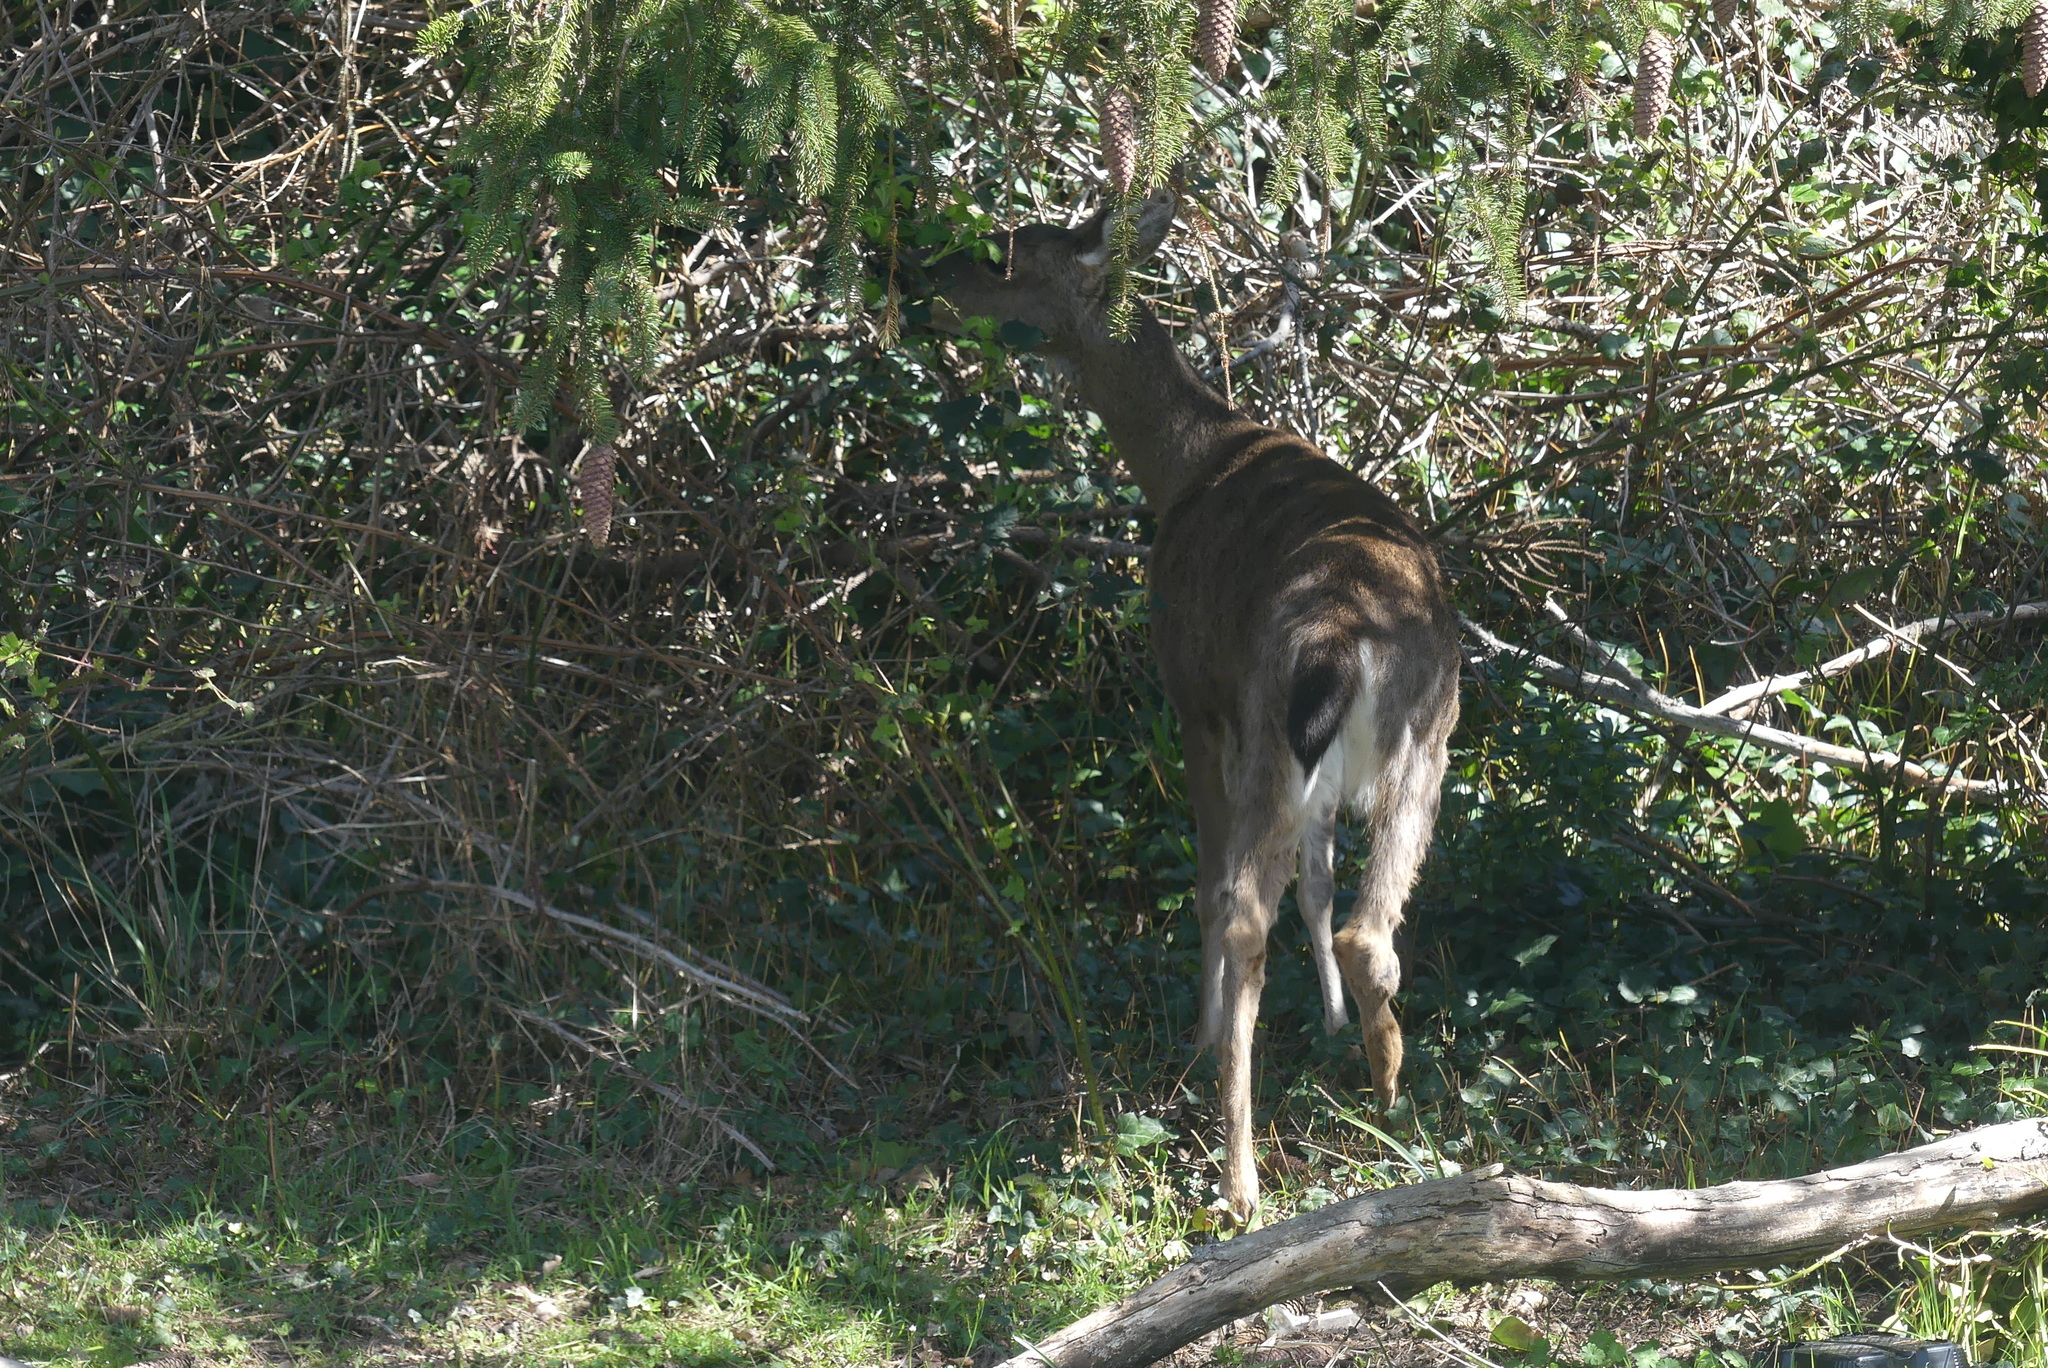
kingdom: Animalia
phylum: Chordata
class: Mammalia
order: Artiodactyla
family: Cervidae
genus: Odocoileus
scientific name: Odocoileus hemionus
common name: Mule deer
